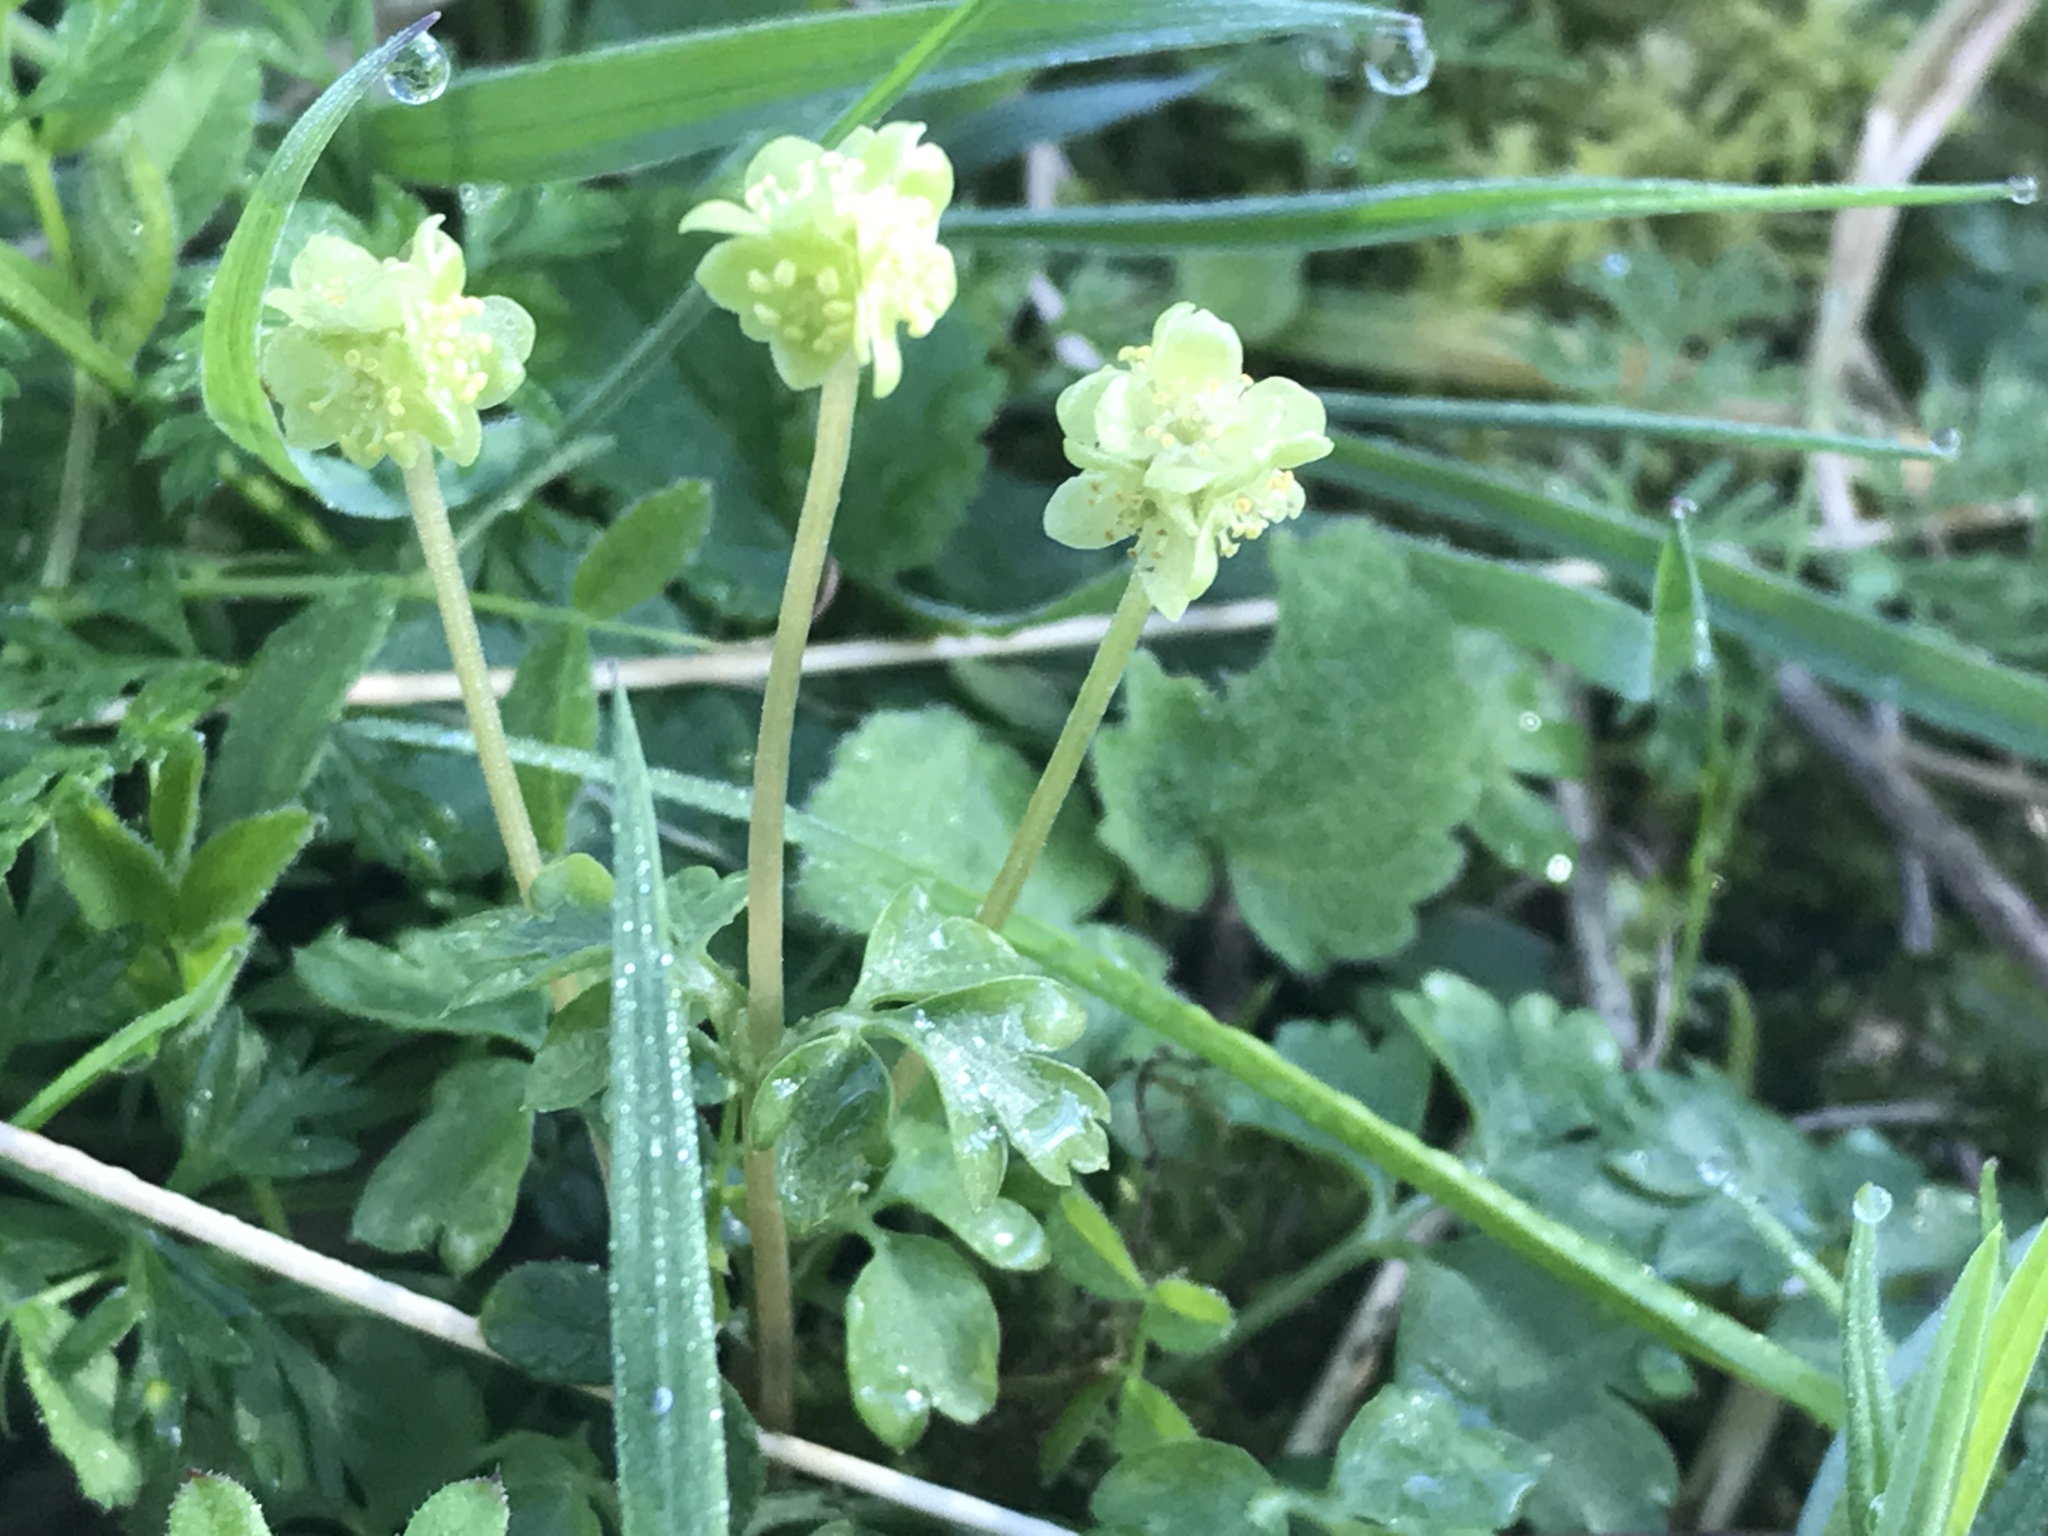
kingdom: Plantae
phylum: Tracheophyta
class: Magnoliopsida
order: Dipsacales
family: Viburnaceae
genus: Adoxa
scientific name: Adoxa moschatellina
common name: Moschatel
